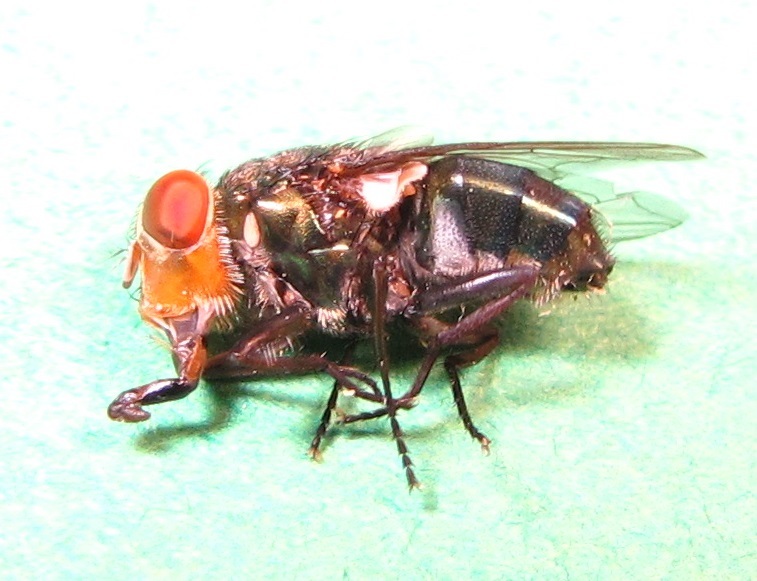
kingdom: Animalia
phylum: Arthropoda
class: Insecta
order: Diptera
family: Calliphoridae
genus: Cochliomyia
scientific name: Cochliomyia macellaria
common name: Secondary screwworm
